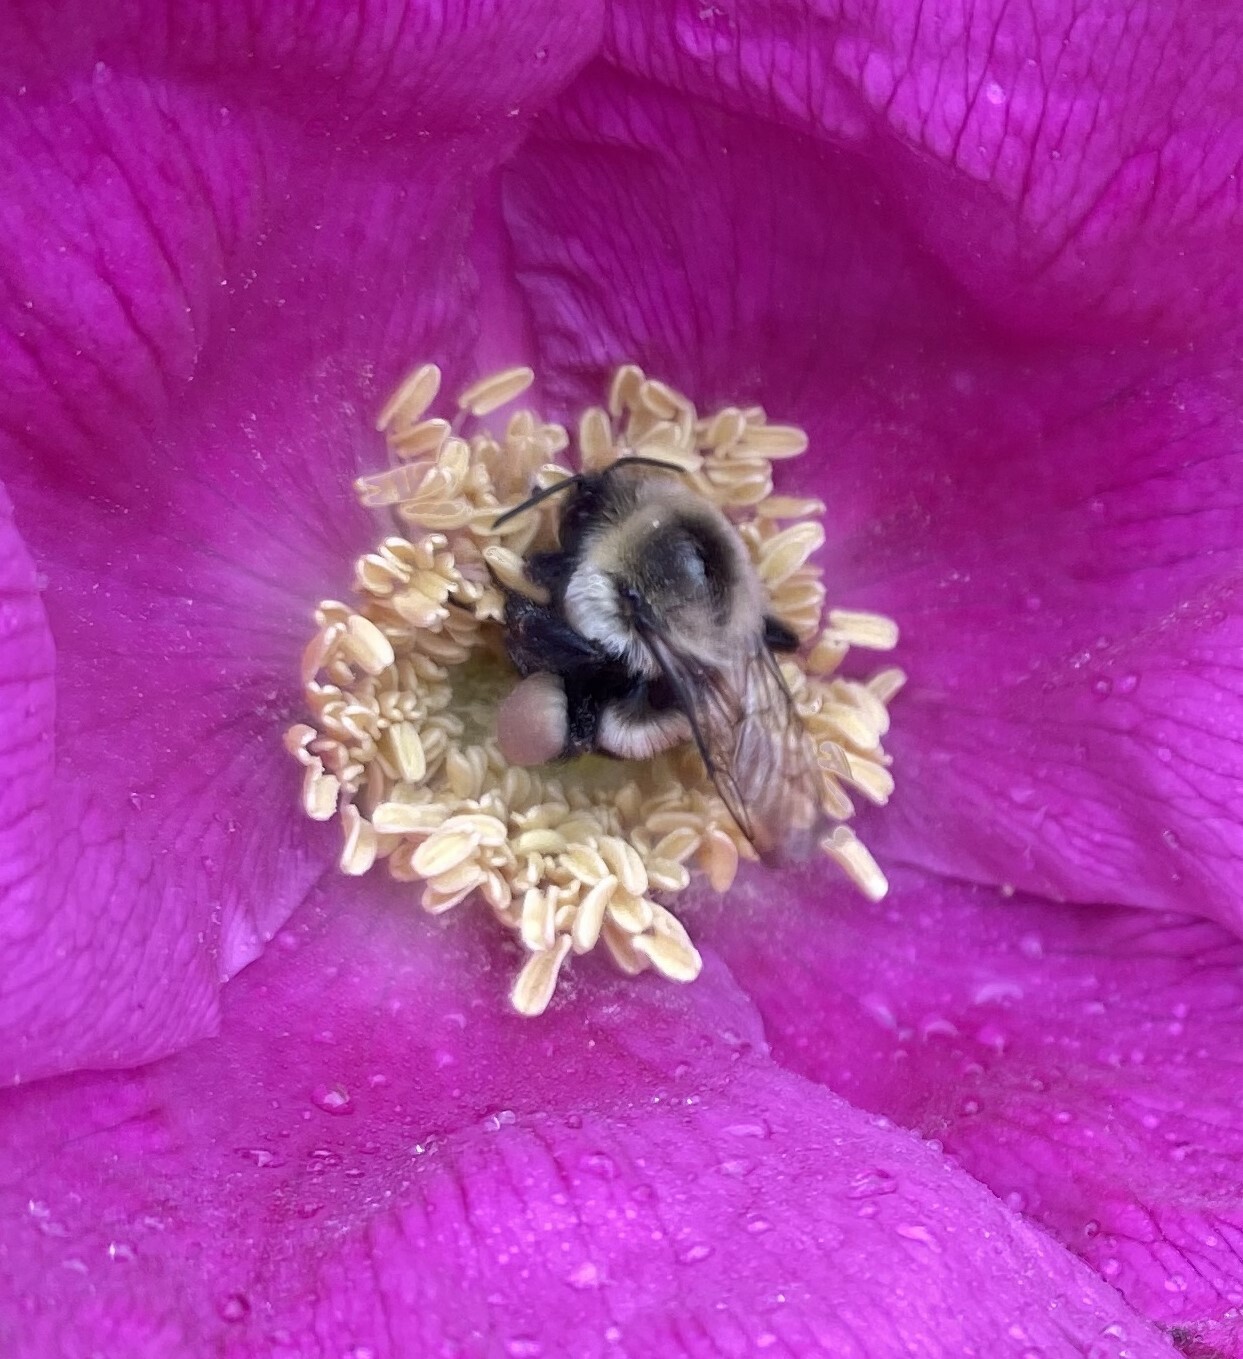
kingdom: Animalia
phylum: Arthropoda
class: Insecta
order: Hymenoptera
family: Apidae
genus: Bombus
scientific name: Bombus impatiens
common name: Common eastern bumble bee
